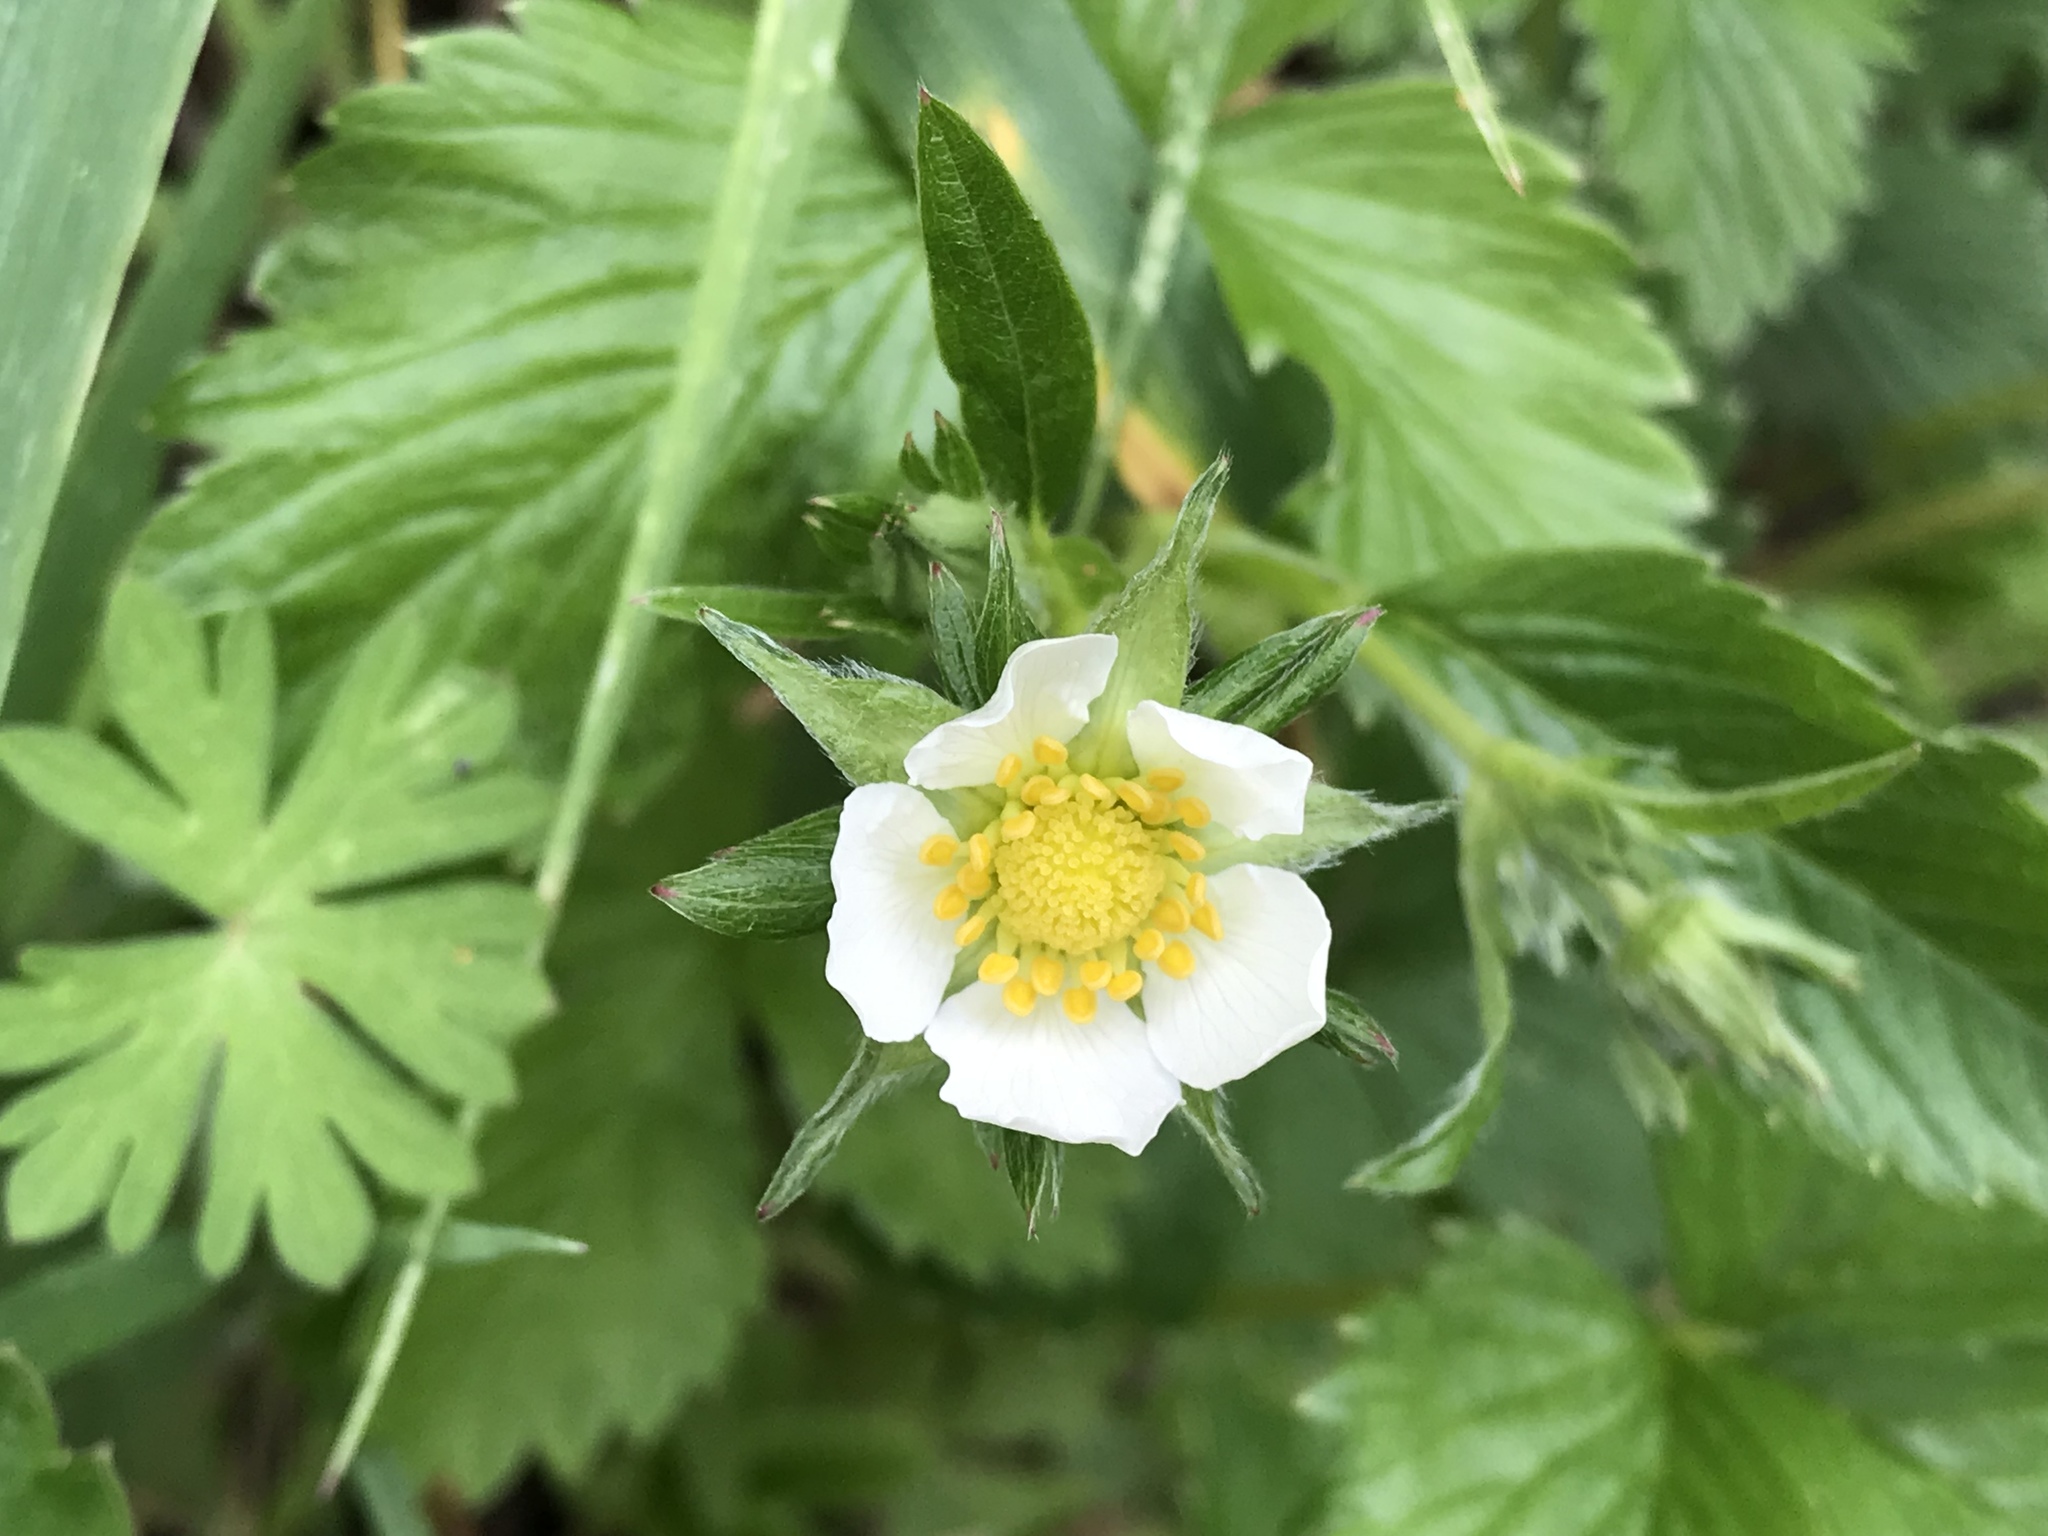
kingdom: Plantae
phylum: Tracheophyta
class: Magnoliopsida
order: Rosales
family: Rosaceae
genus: Fragaria
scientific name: Fragaria vesca
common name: Wild strawberry
